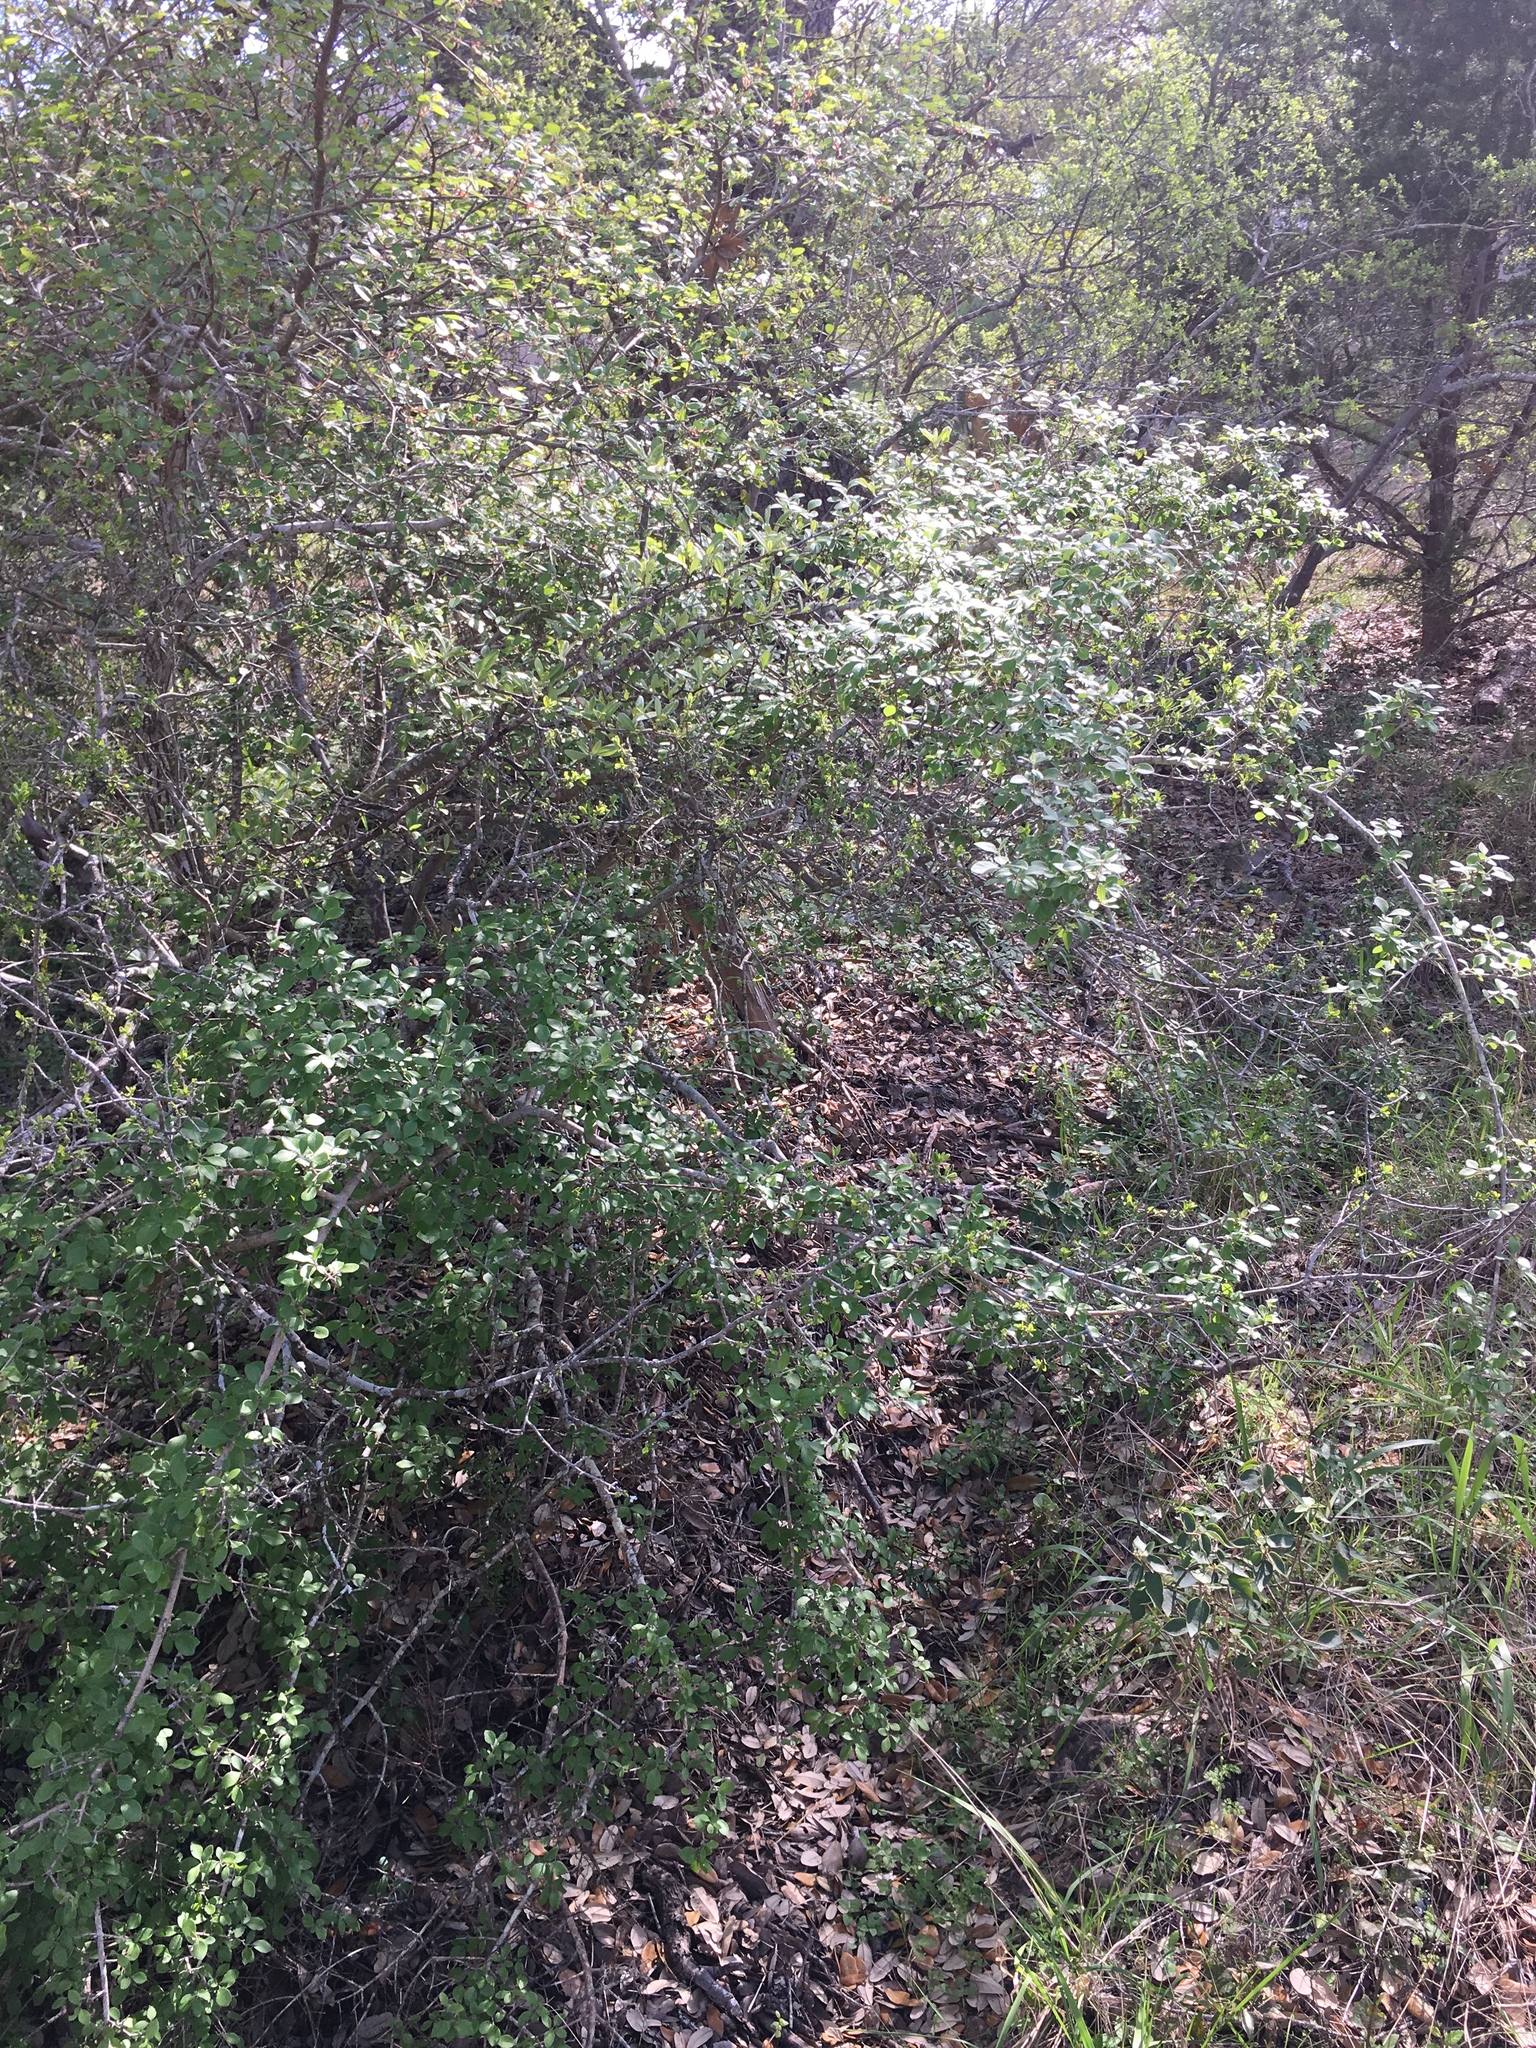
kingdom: Plantae
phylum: Tracheophyta
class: Magnoliopsida
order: Lamiales
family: Oleaceae
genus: Forestiera
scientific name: Forestiera pubescens
